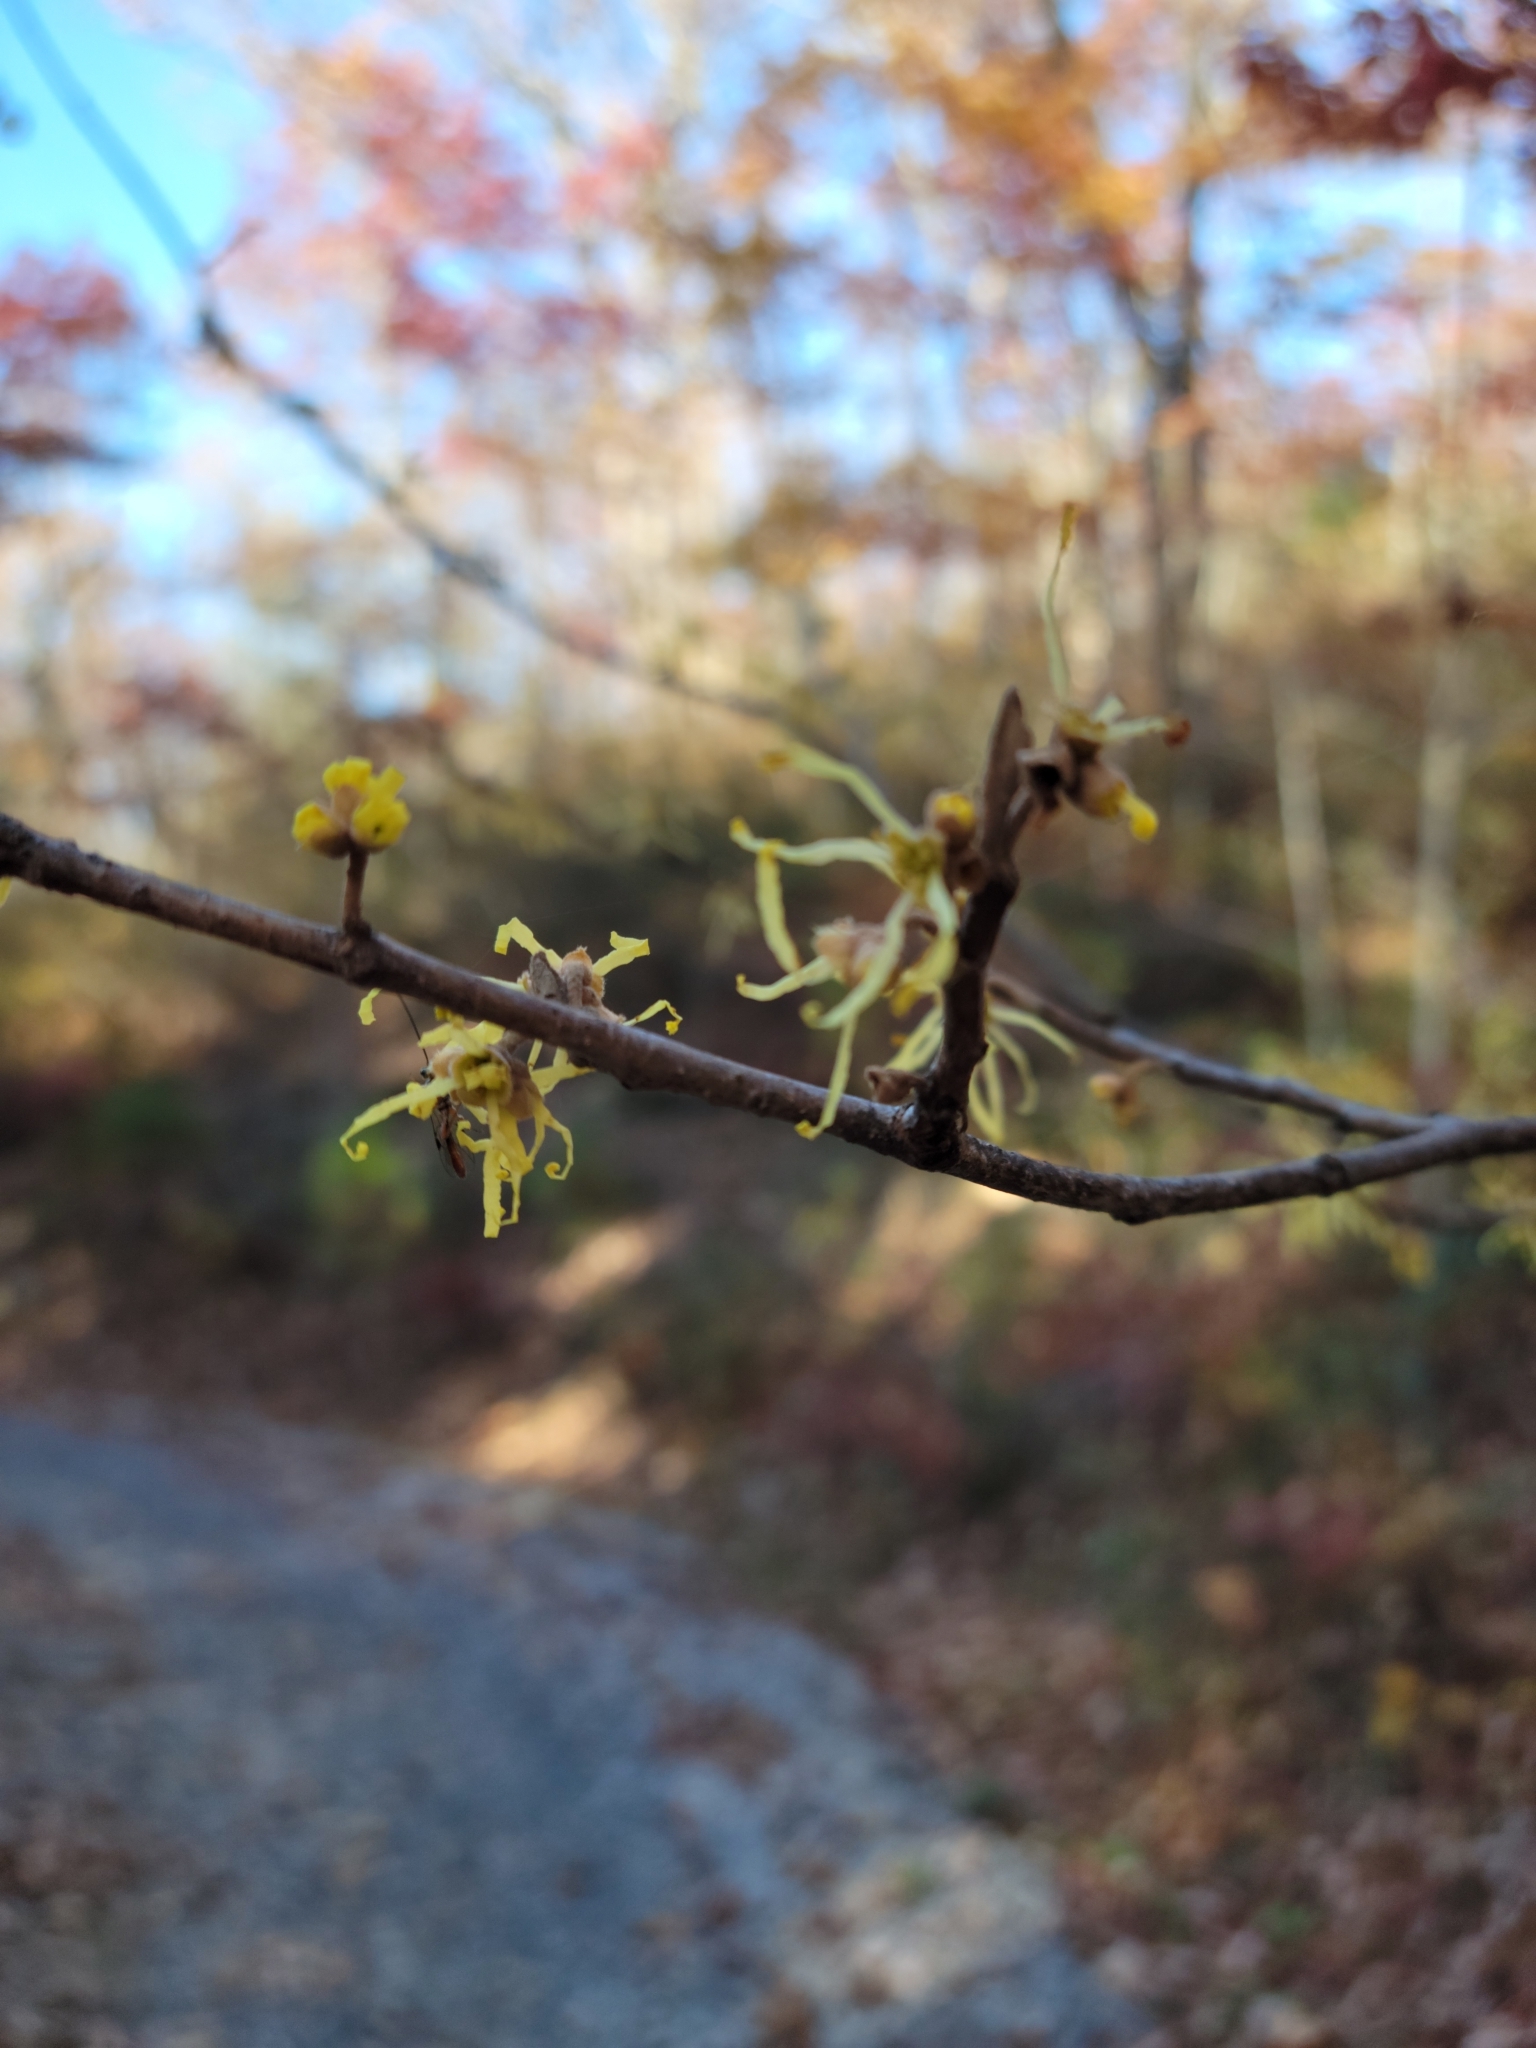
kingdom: Plantae
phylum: Tracheophyta
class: Magnoliopsida
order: Saxifragales
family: Hamamelidaceae
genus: Hamamelis
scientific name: Hamamelis virginiana
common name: Witch-hazel
